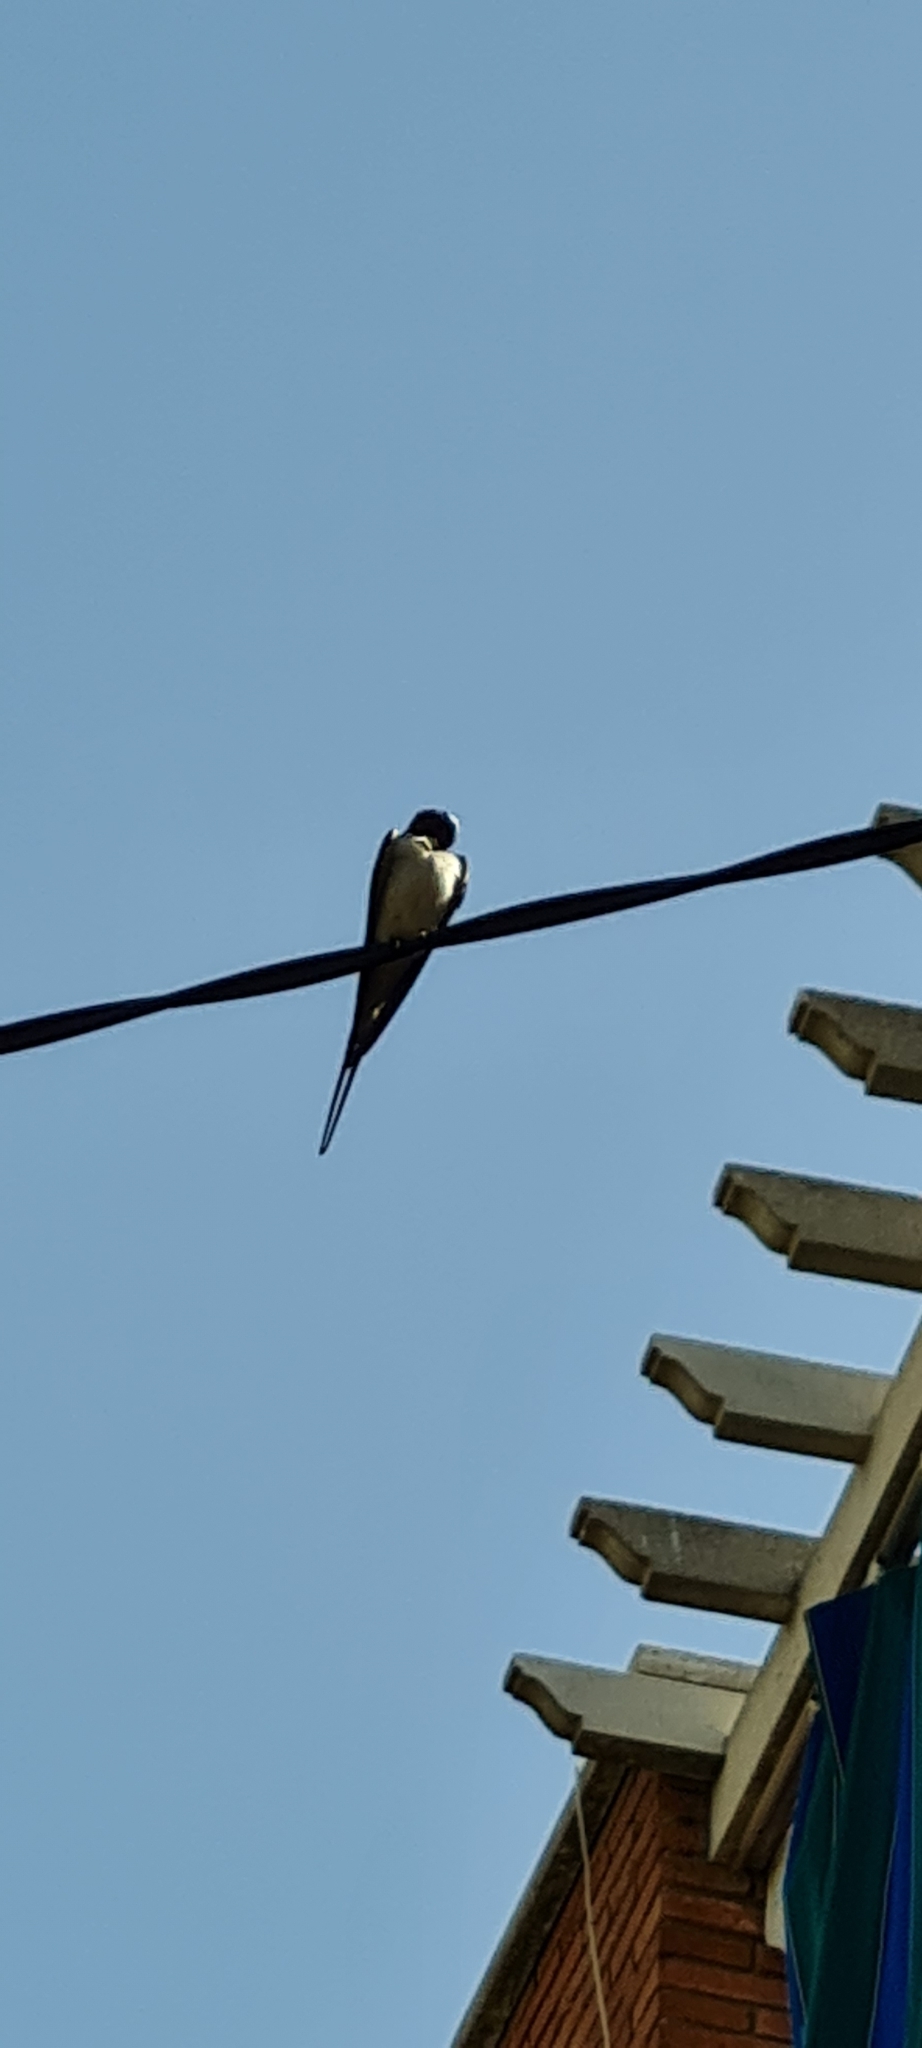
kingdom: Animalia
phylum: Chordata
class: Aves
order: Passeriformes
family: Hirundinidae
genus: Hirundo
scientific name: Hirundo rustica
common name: Barn swallow
